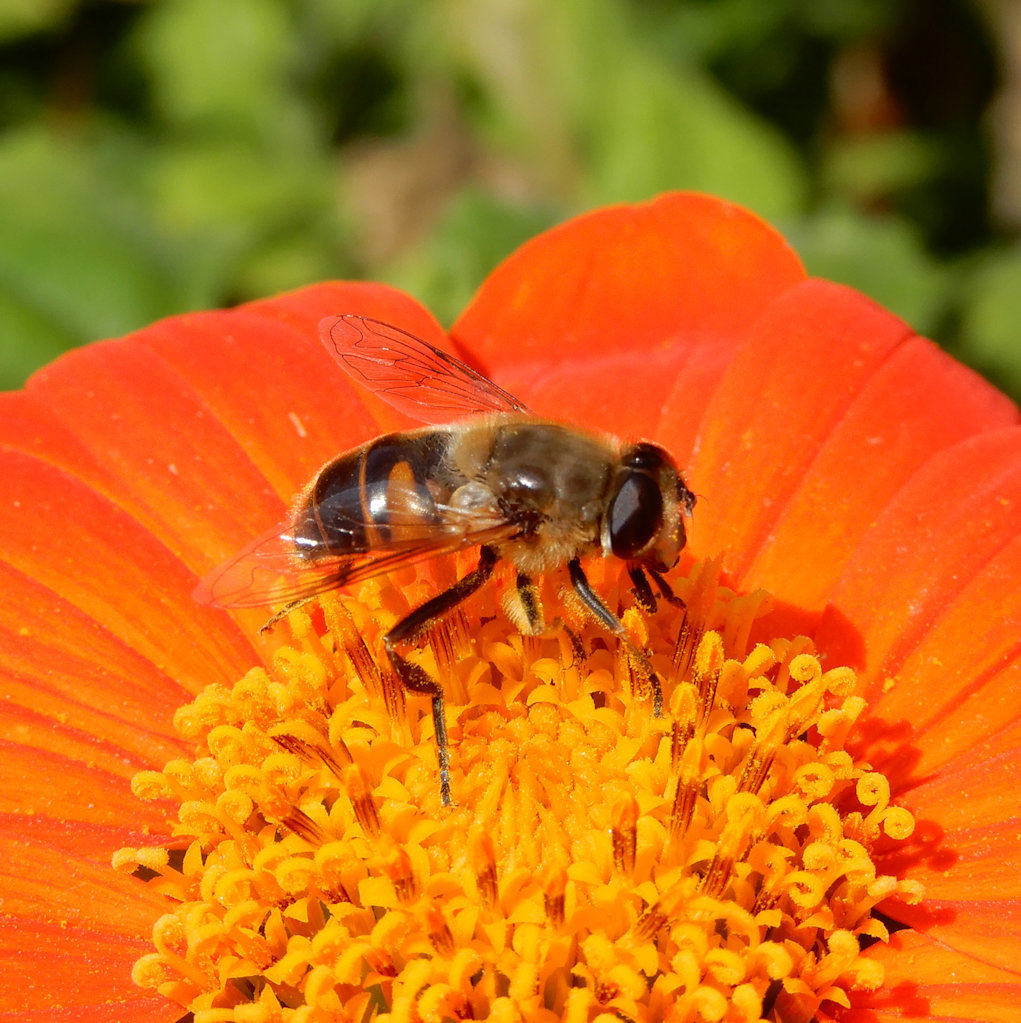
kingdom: Animalia
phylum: Arthropoda
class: Insecta
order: Diptera
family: Syrphidae
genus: Eristalis
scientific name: Eristalis tenax
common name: Drone fly
